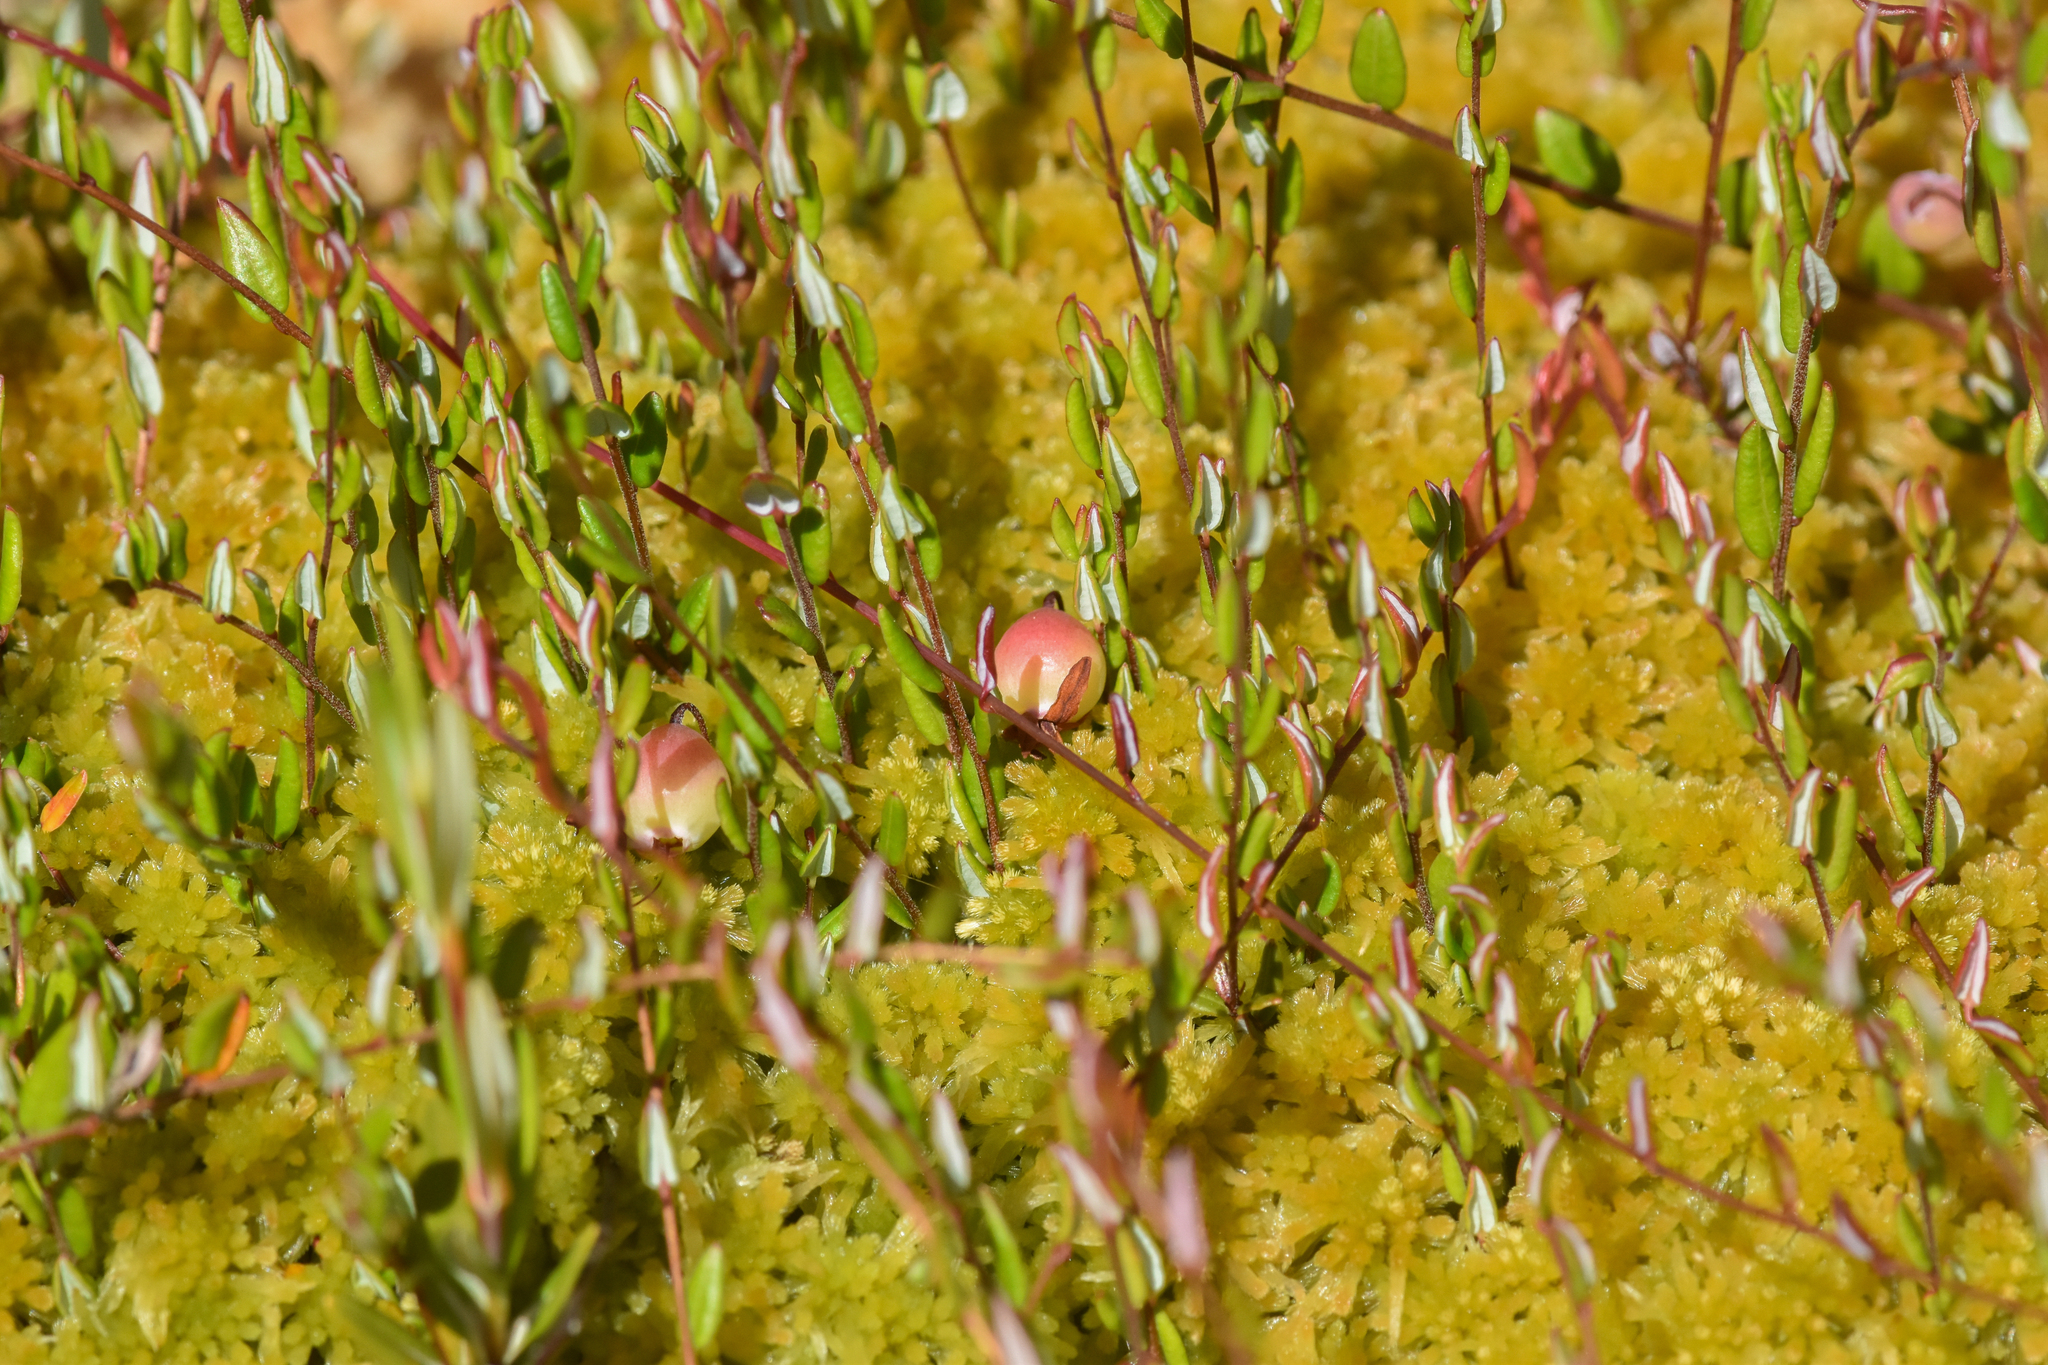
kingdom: Plantae
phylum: Tracheophyta
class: Magnoliopsida
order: Ericales
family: Ericaceae
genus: Vaccinium
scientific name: Vaccinium oxycoccos
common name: Cranberry
